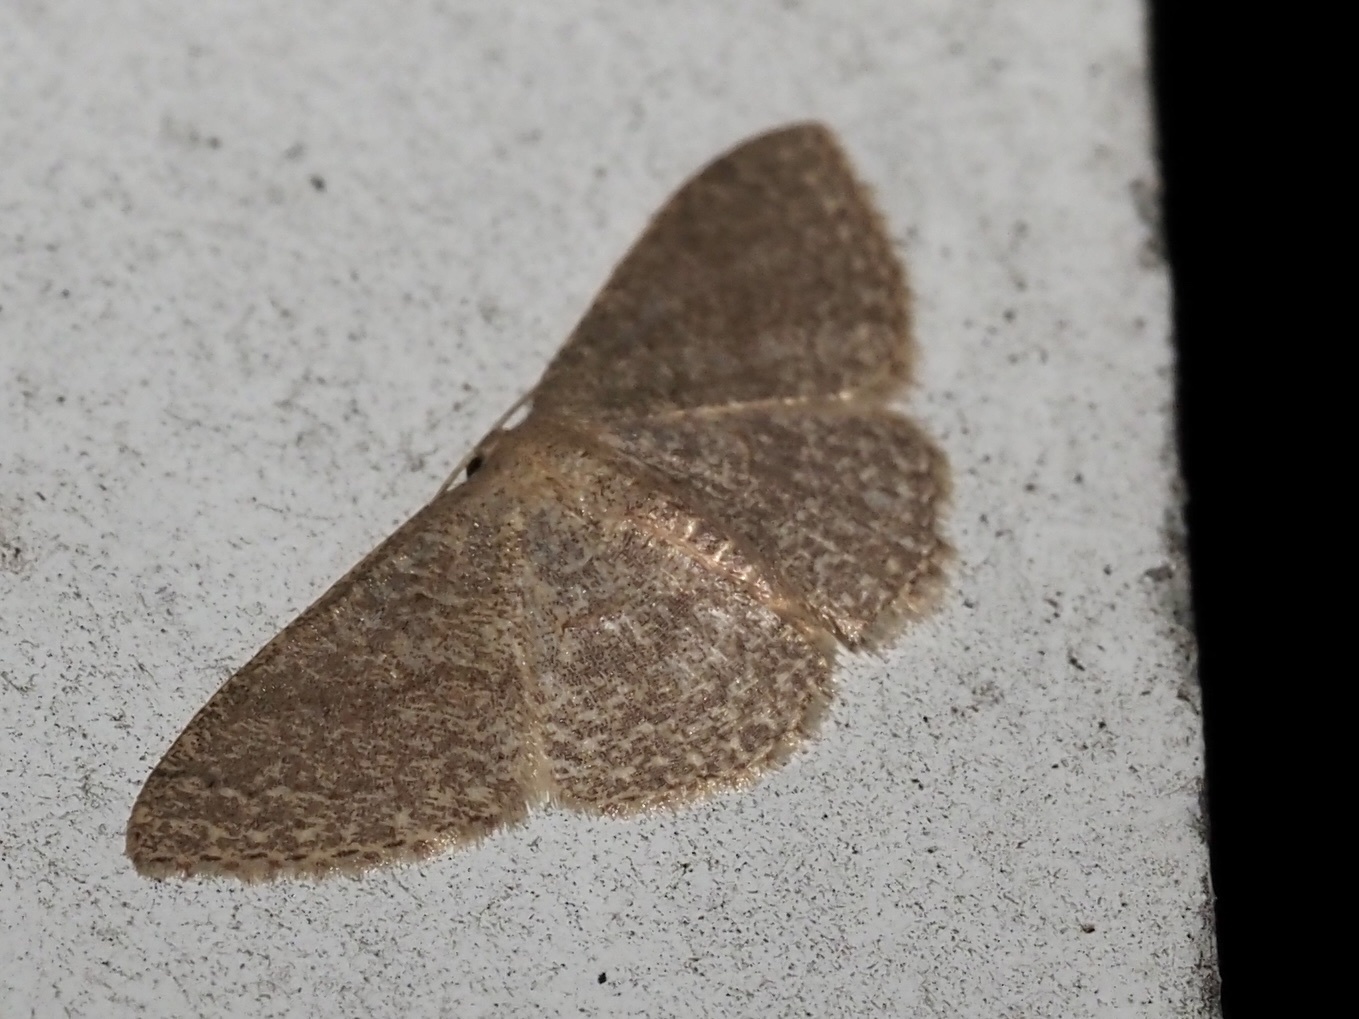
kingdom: Animalia
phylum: Arthropoda
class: Insecta
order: Lepidoptera
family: Geometridae
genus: Pleuroprucha
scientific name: Pleuroprucha insulsaria
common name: Common tan wave
